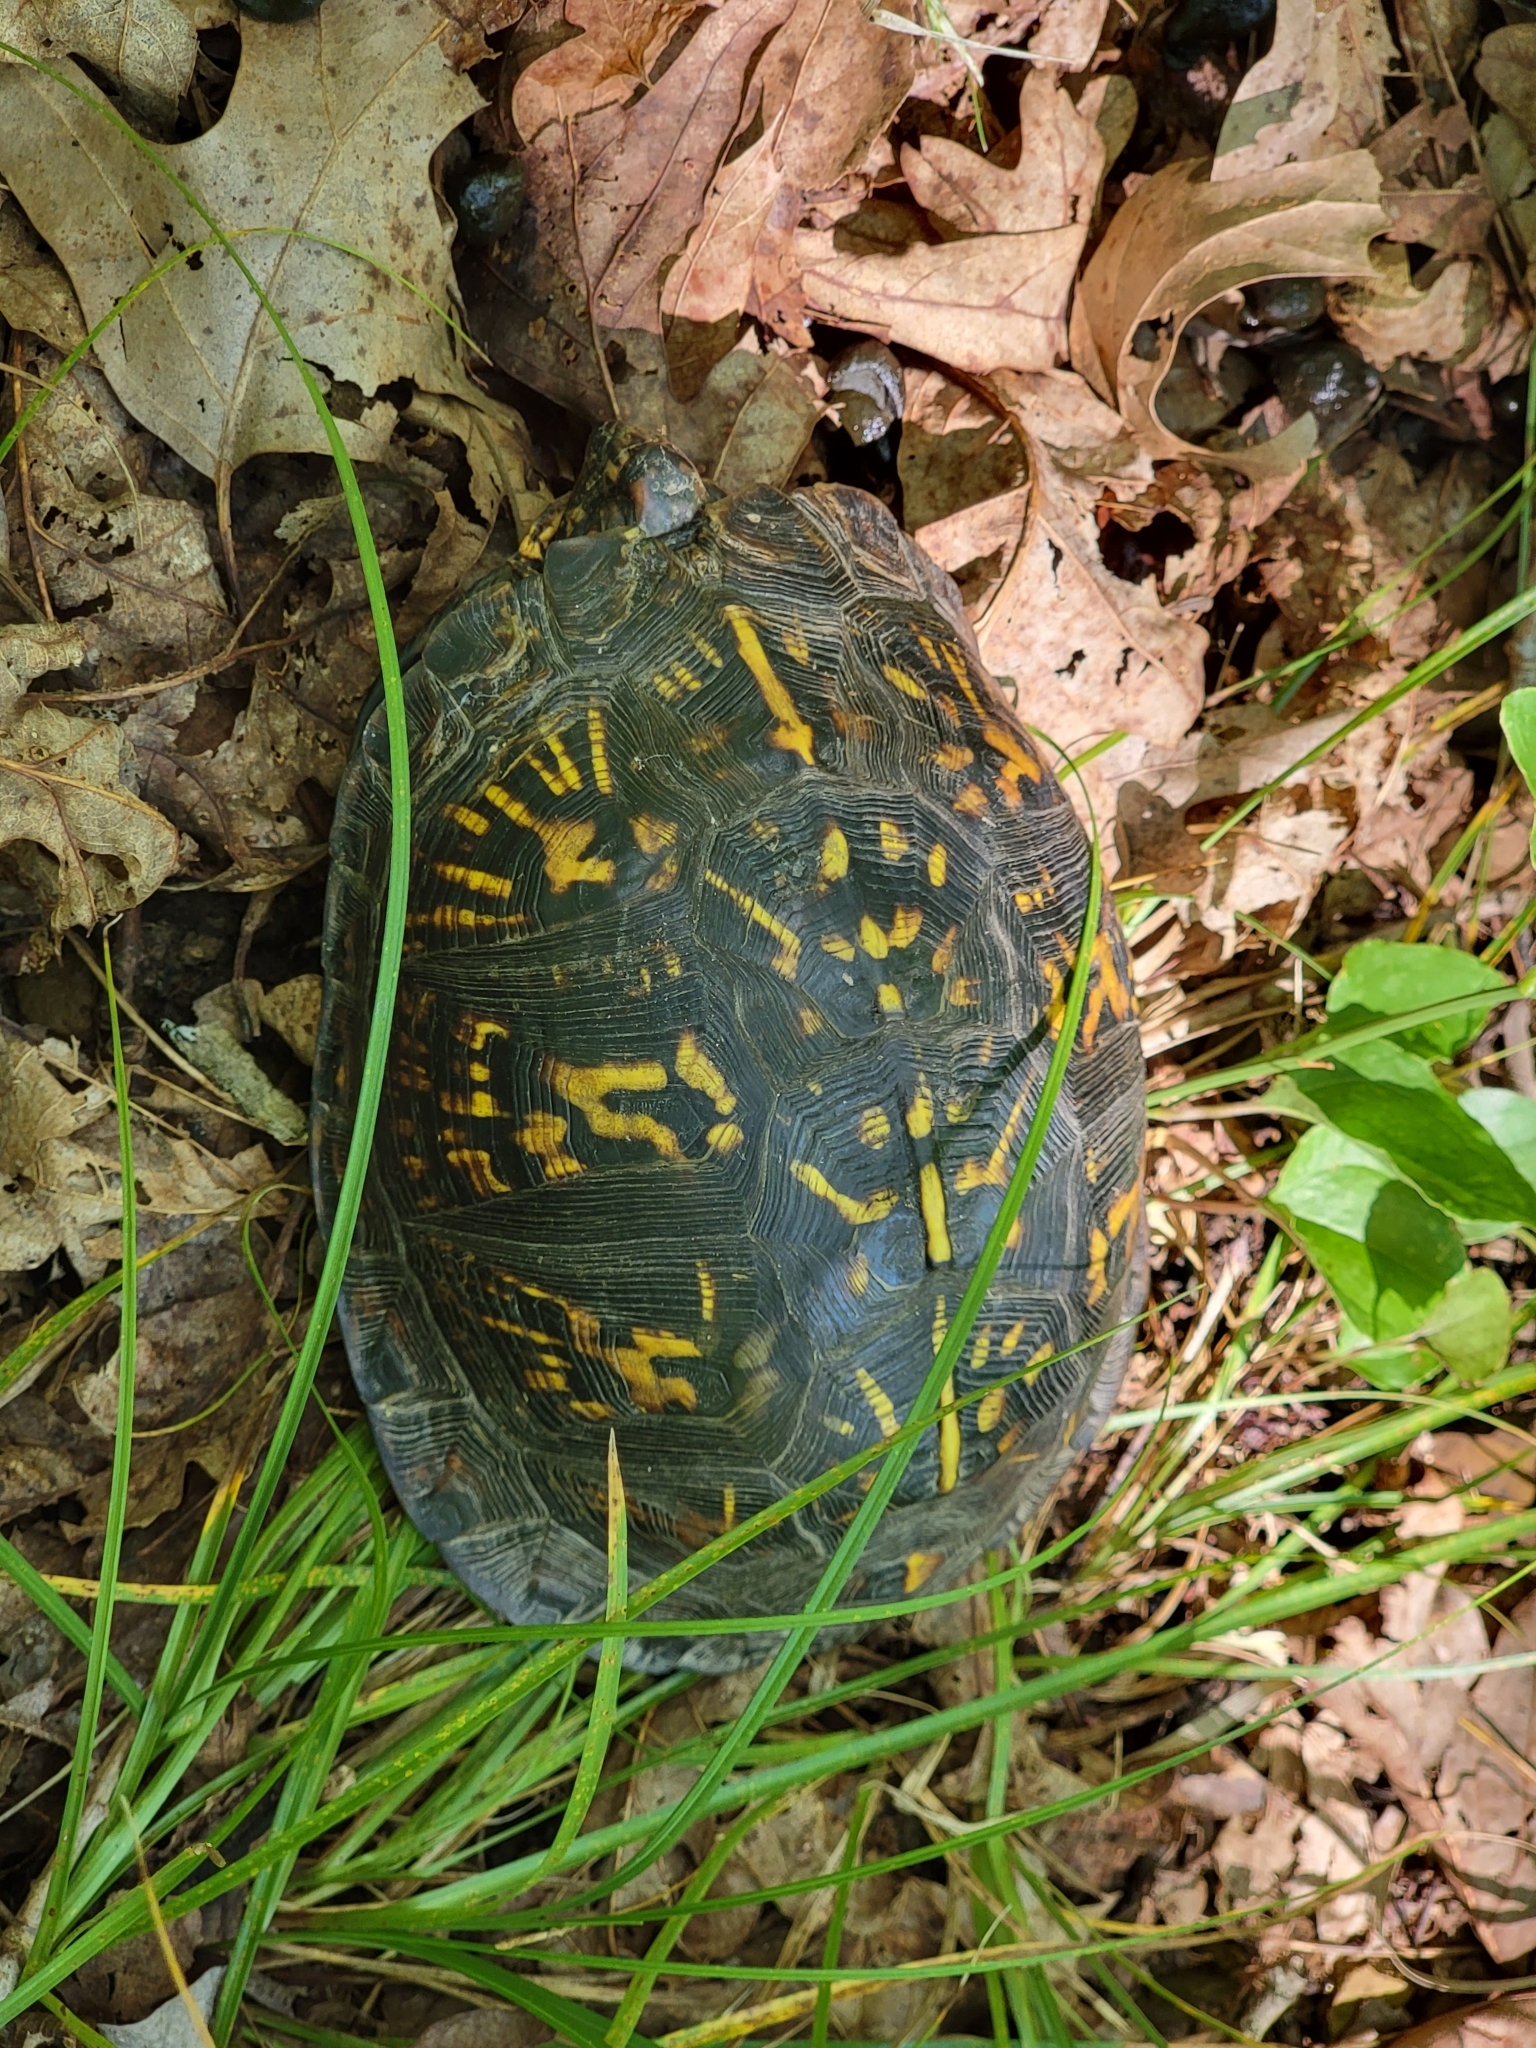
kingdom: Animalia
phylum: Chordata
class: Testudines
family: Emydidae
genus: Terrapene
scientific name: Terrapene carolina
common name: Common box turtle
